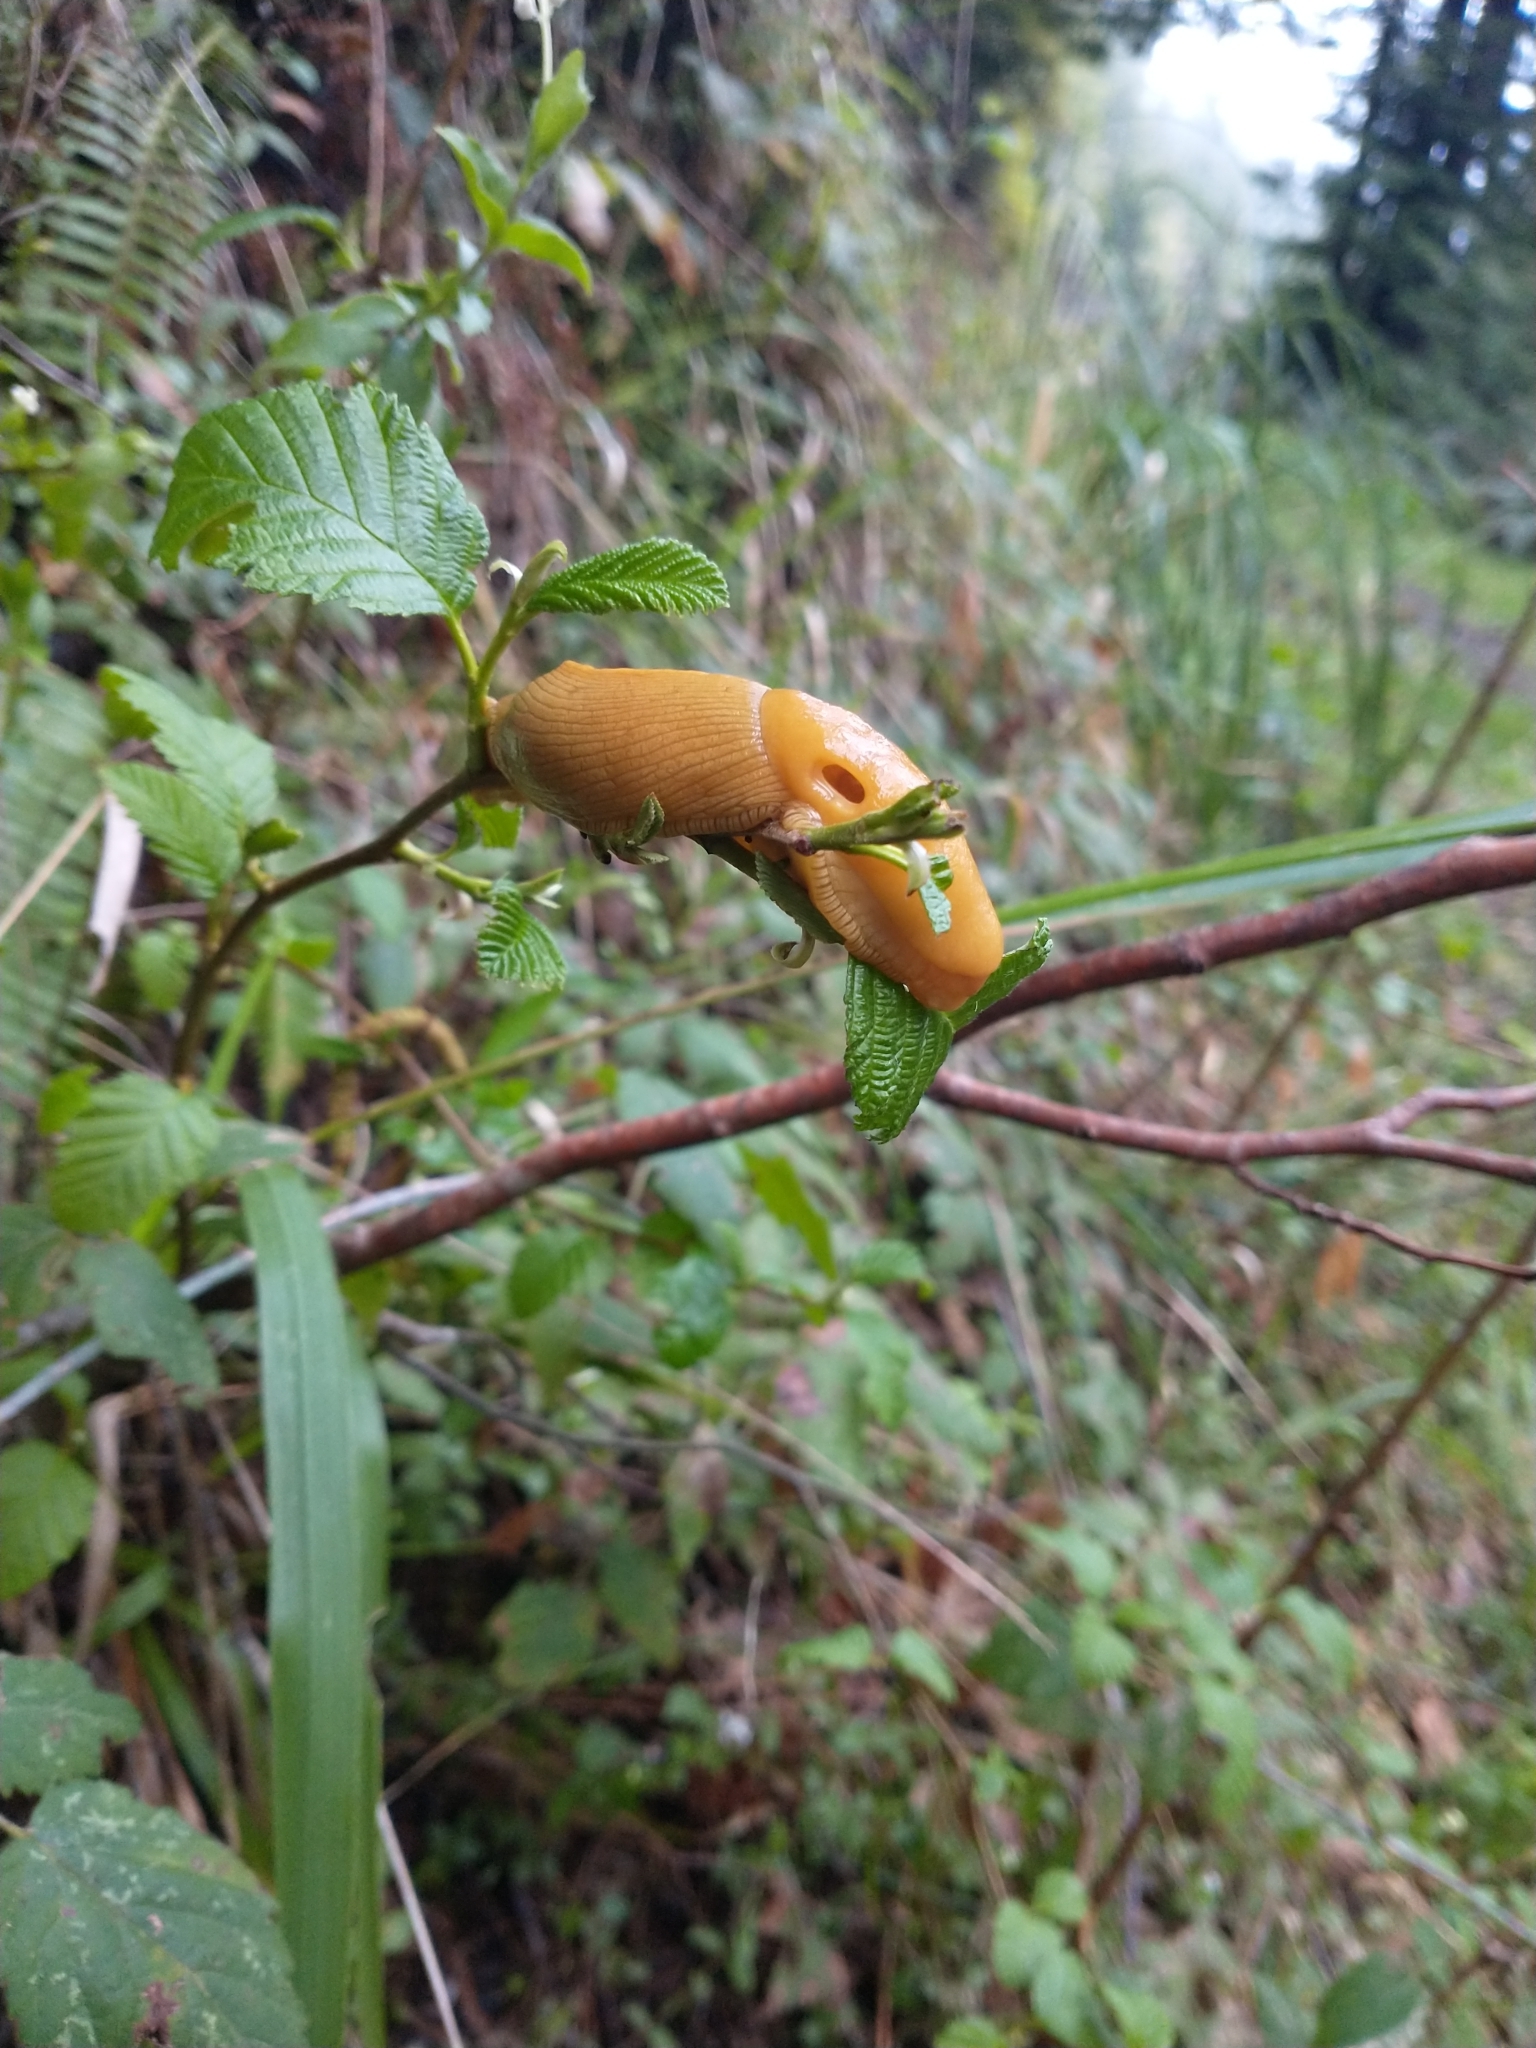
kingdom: Animalia
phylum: Mollusca
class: Gastropoda
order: Stylommatophora
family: Ariolimacidae
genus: Ariolimax
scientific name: Ariolimax columbianus
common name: Pacific banana slug
